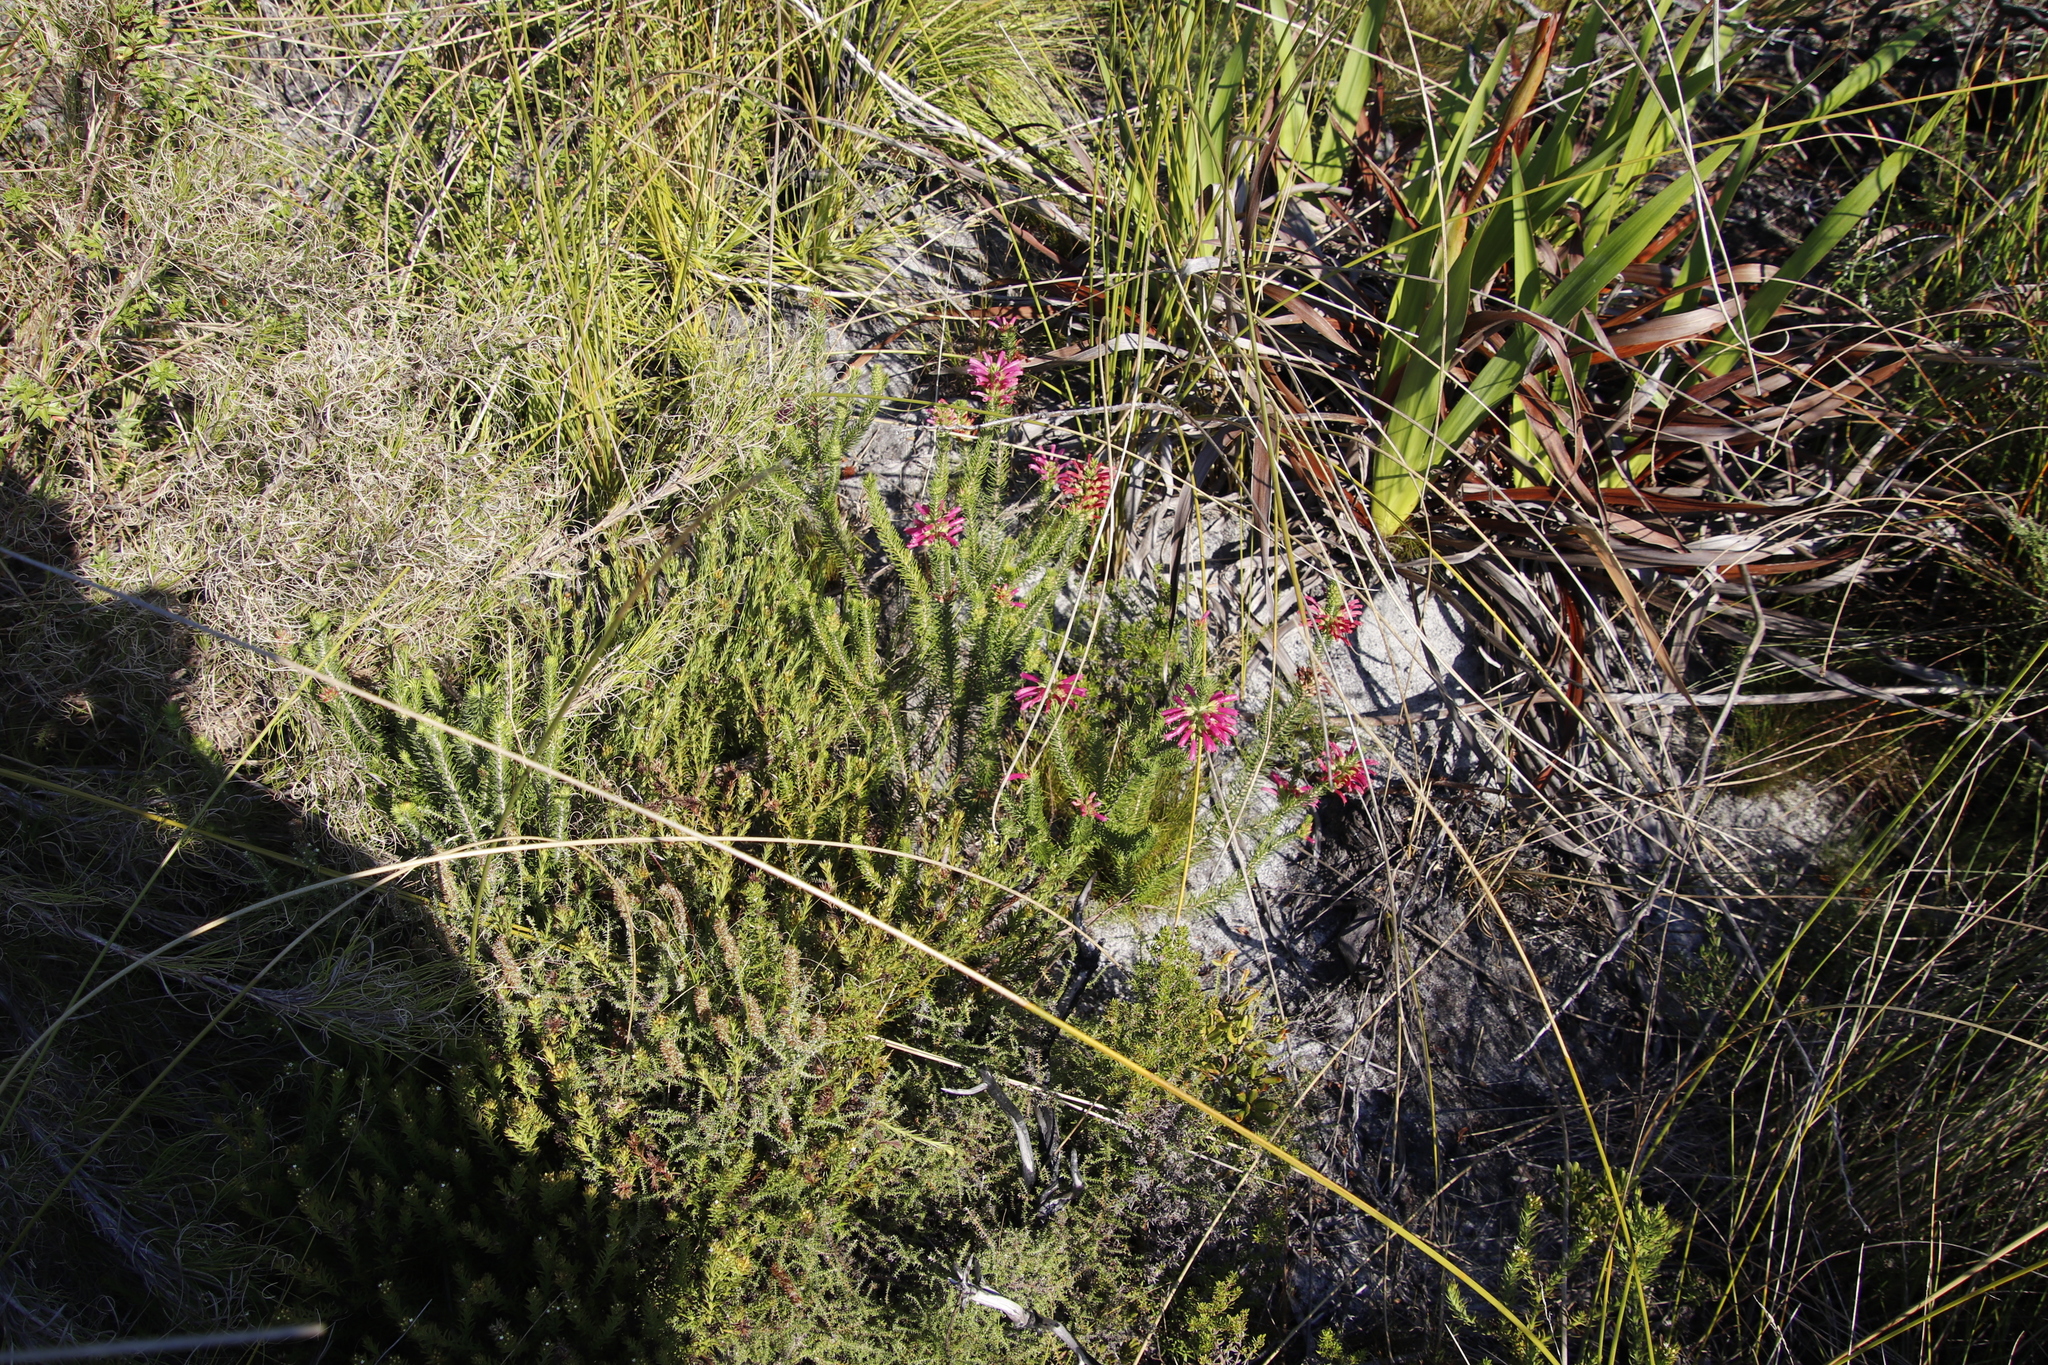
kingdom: Plantae
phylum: Tracheophyta
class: Magnoliopsida
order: Ericales
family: Ericaceae
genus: Erica
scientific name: Erica abietina
